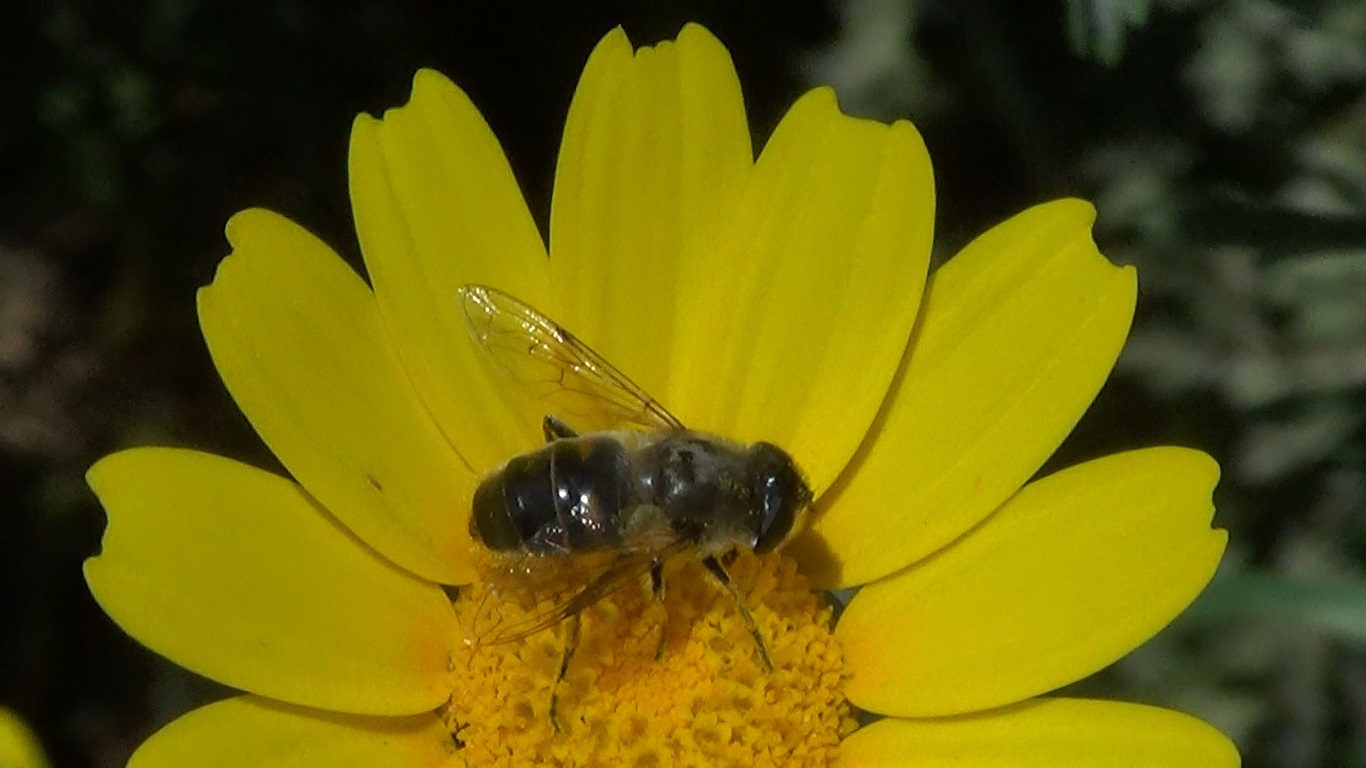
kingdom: Animalia
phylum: Arthropoda
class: Insecta
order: Diptera
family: Syrphidae
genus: Eristalis
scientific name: Eristalis tenax
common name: Drone fly
